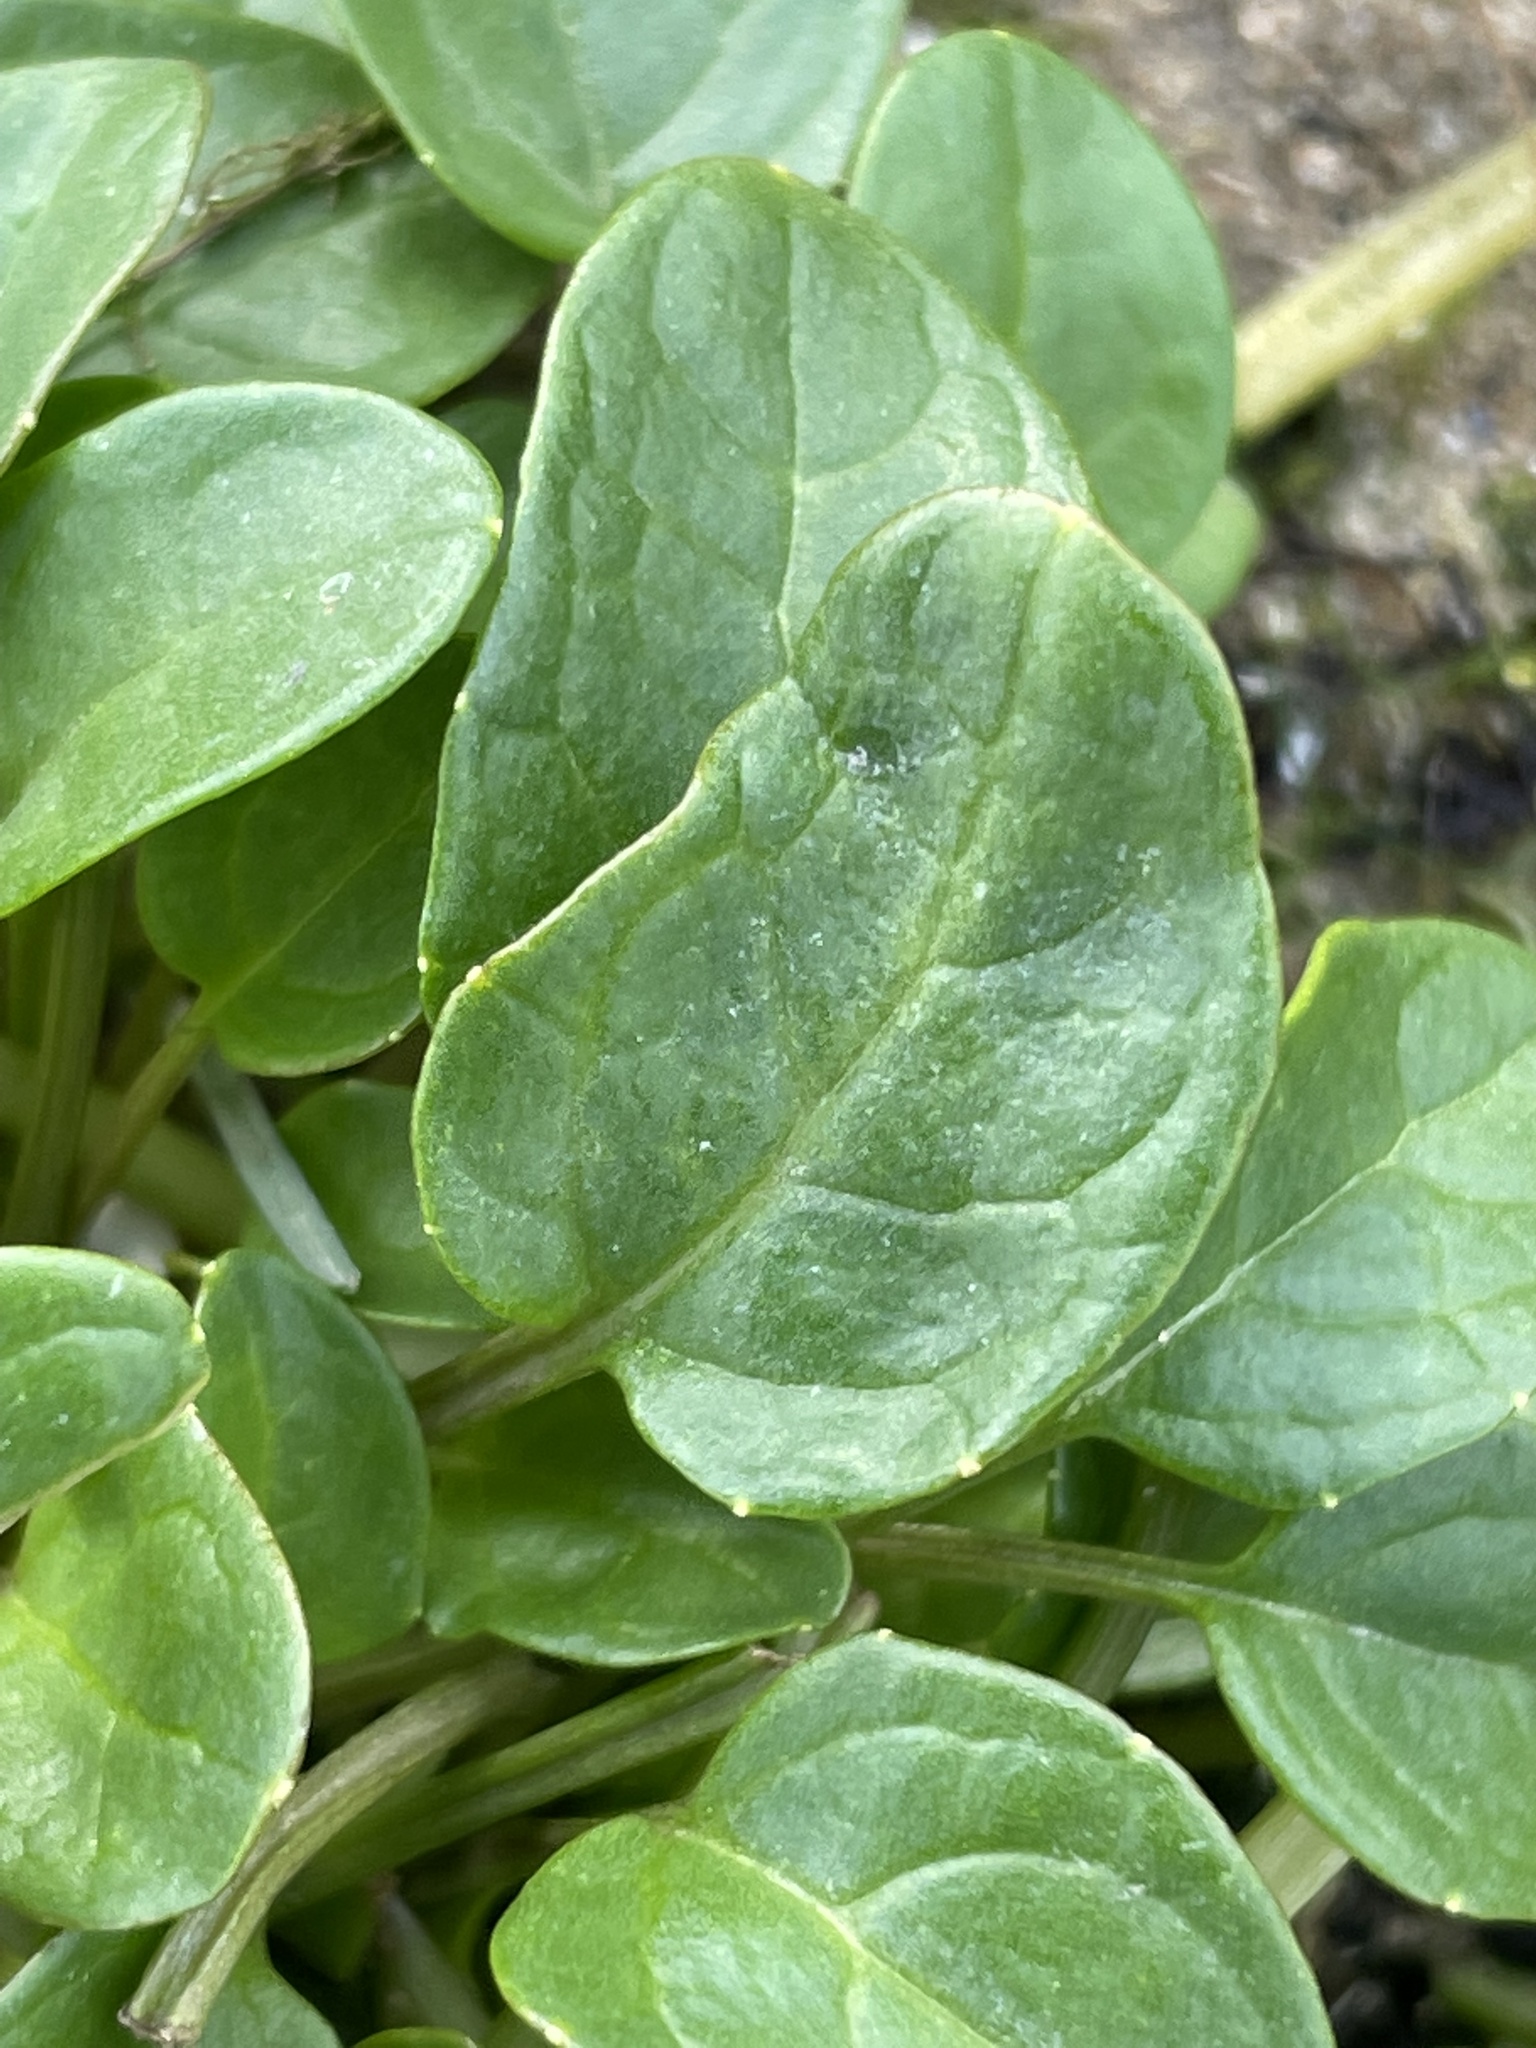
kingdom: Plantae
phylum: Tracheophyta
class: Magnoliopsida
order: Brassicales
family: Brassicaceae
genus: Cochlearia
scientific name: Cochlearia officinalis
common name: Scurvy-grass
